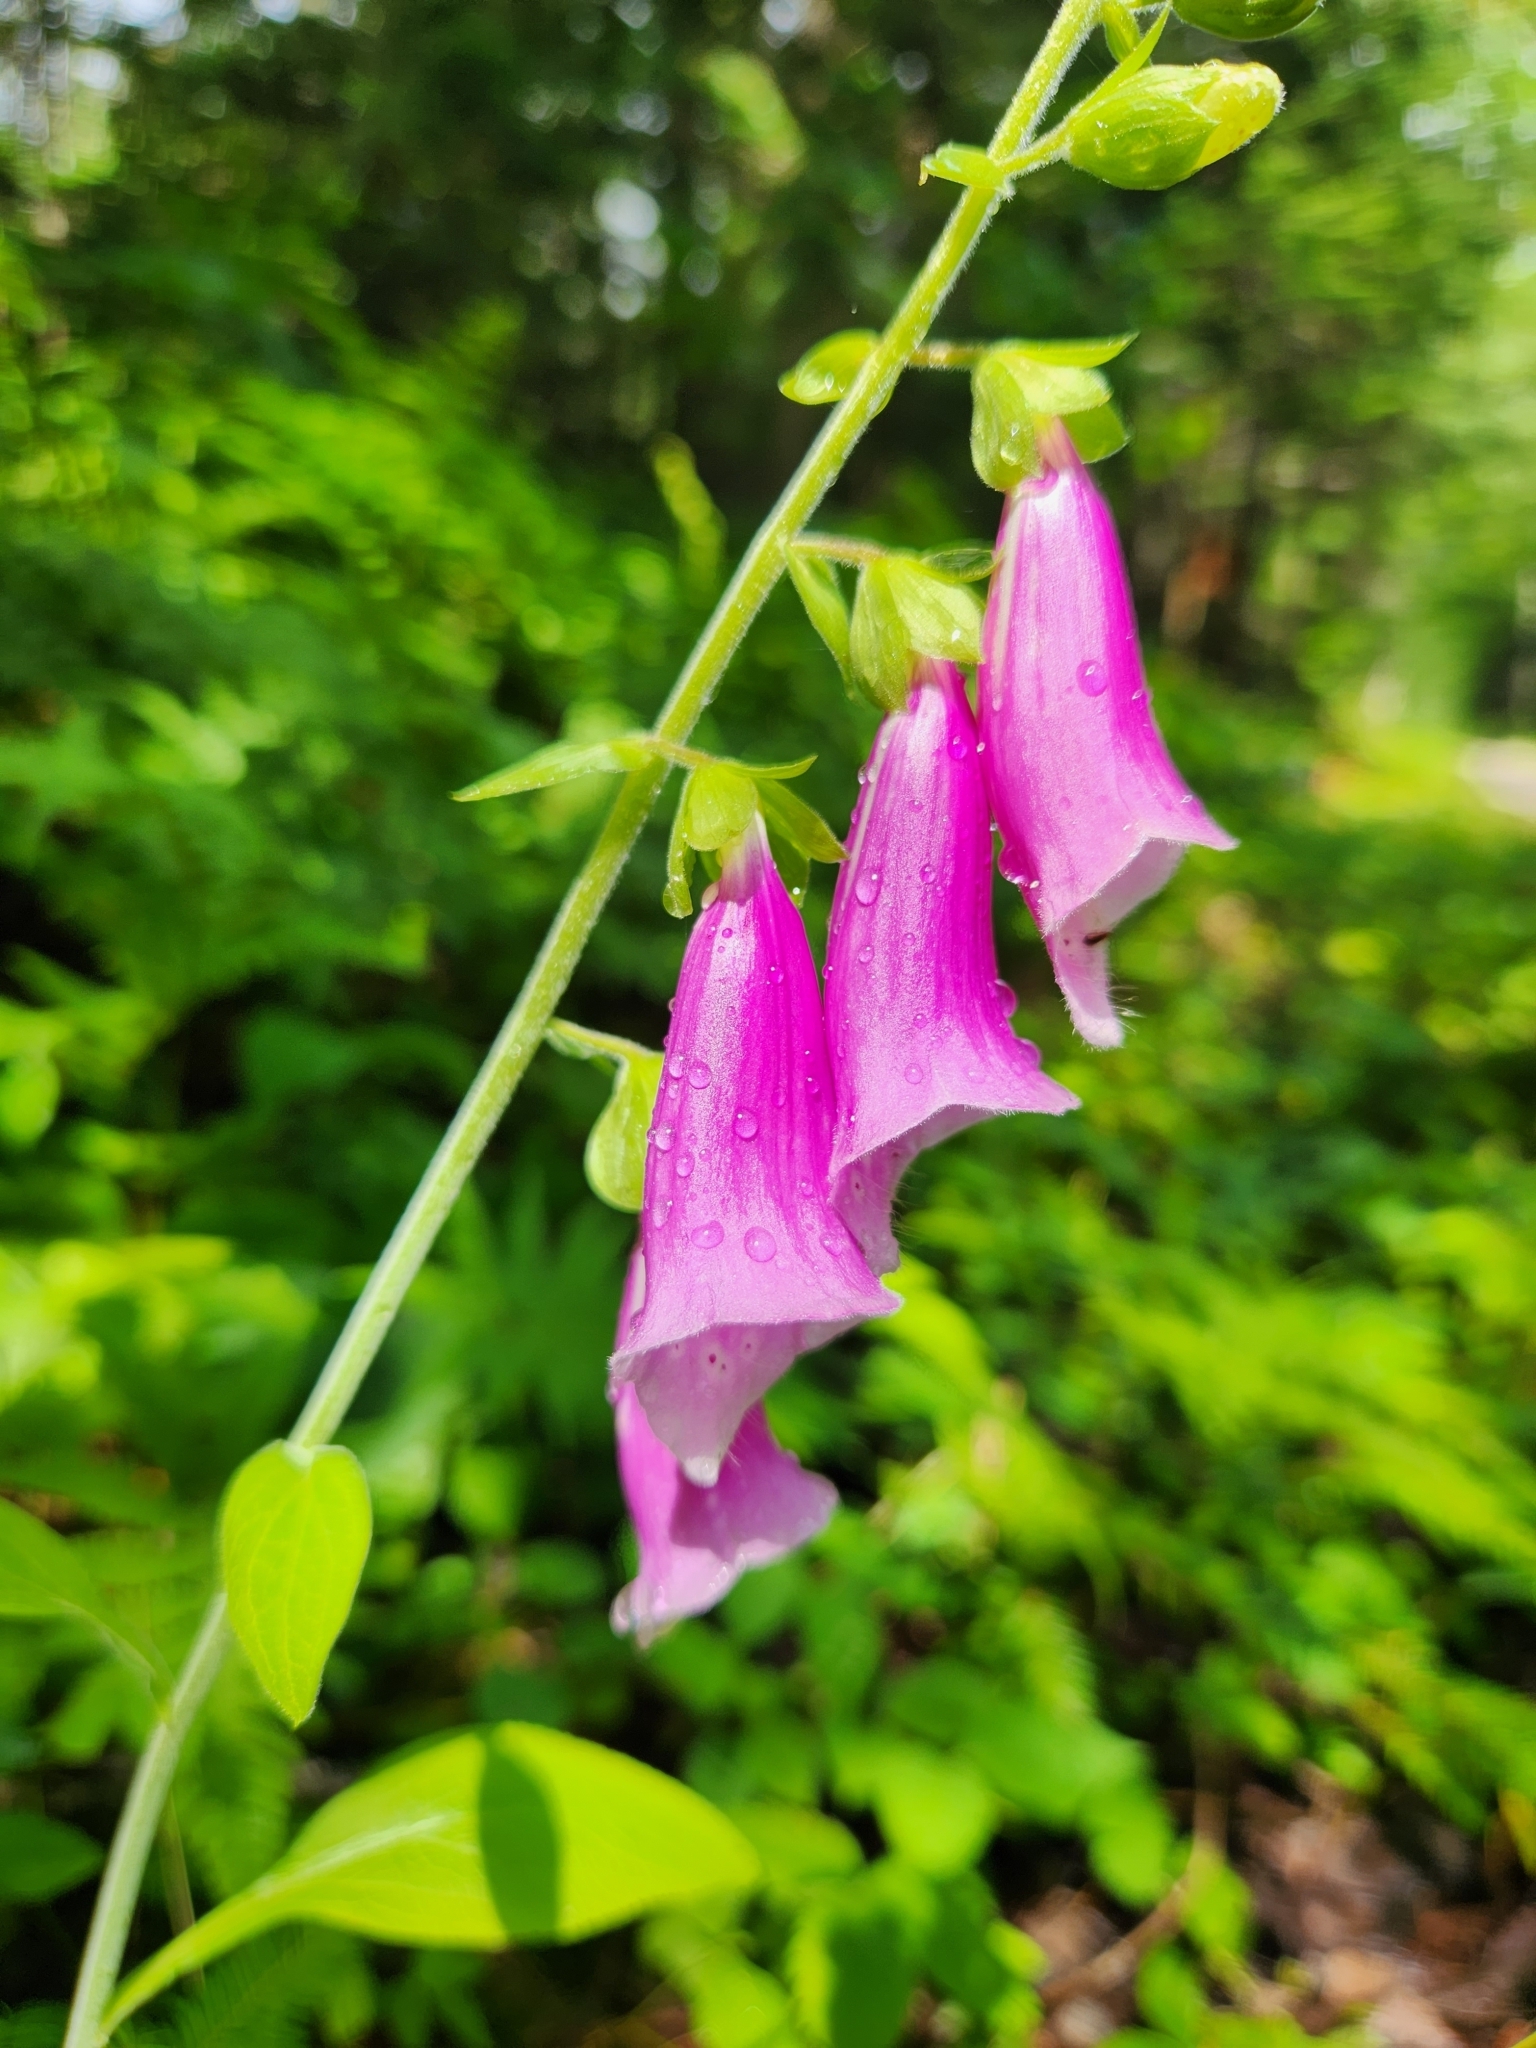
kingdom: Plantae
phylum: Tracheophyta
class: Magnoliopsida
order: Lamiales
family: Plantaginaceae
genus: Digitalis
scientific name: Digitalis purpurea
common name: Foxglove
